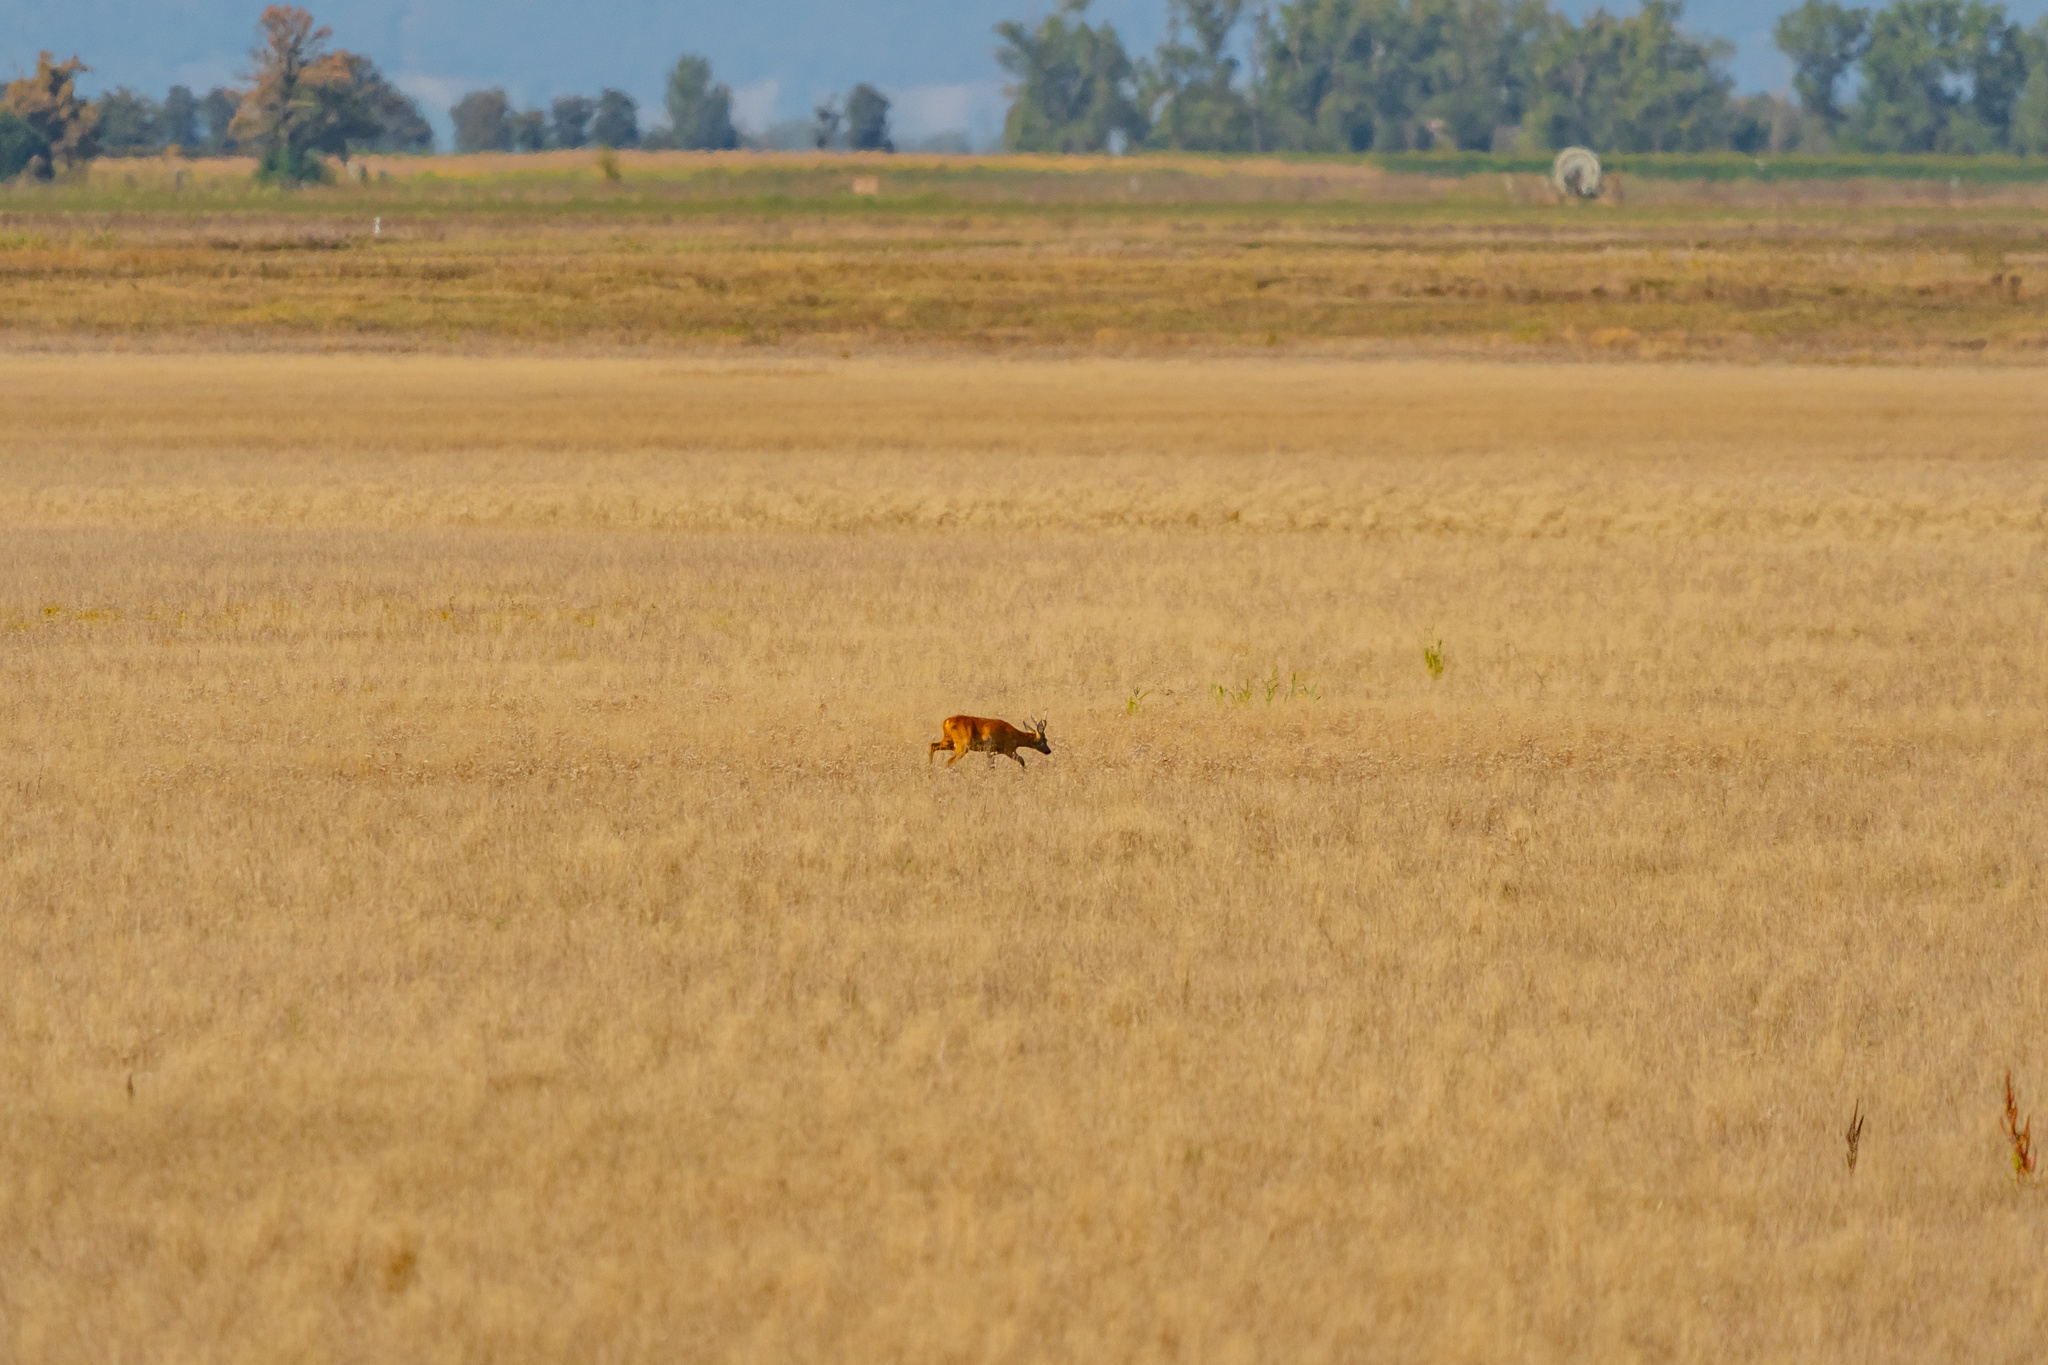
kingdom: Animalia
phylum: Chordata
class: Mammalia
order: Artiodactyla
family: Cervidae
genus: Capreolus
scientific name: Capreolus capreolus
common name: Western roe deer
